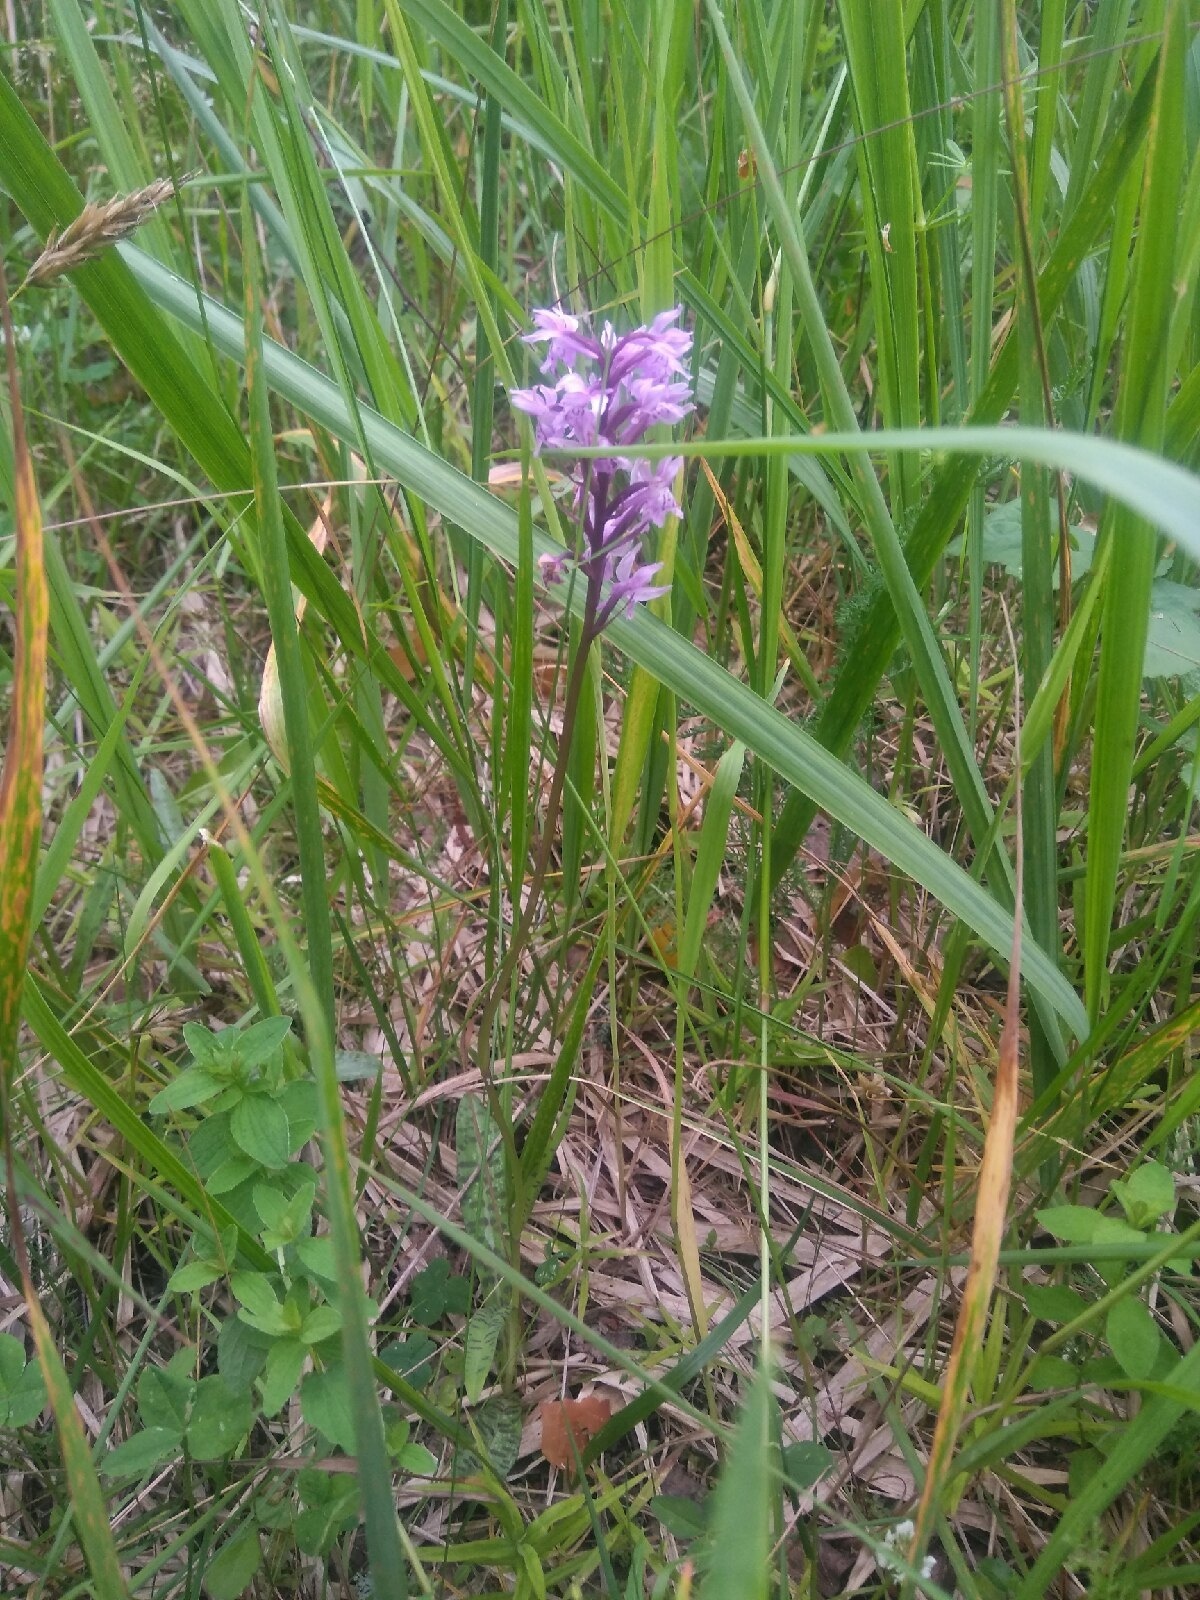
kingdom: Plantae
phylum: Tracheophyta
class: Liliopsida
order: Asparagales
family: Orchidaceae
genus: Dactylorhiza
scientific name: Dactylorhiza maculata
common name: Heath spotted-orchid
